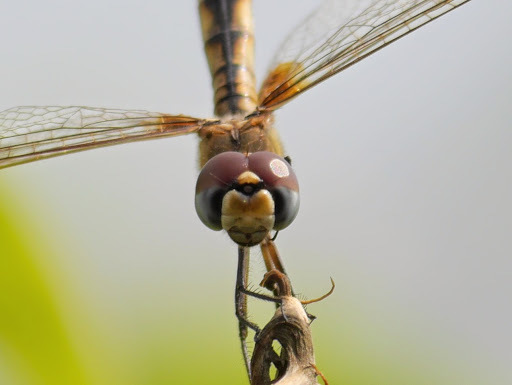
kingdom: Animalia
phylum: Arthropoda
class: Insecta
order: Odonata
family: Libellulidae
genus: Urothemis
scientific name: Urothemis edwardsii
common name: Blue basker
